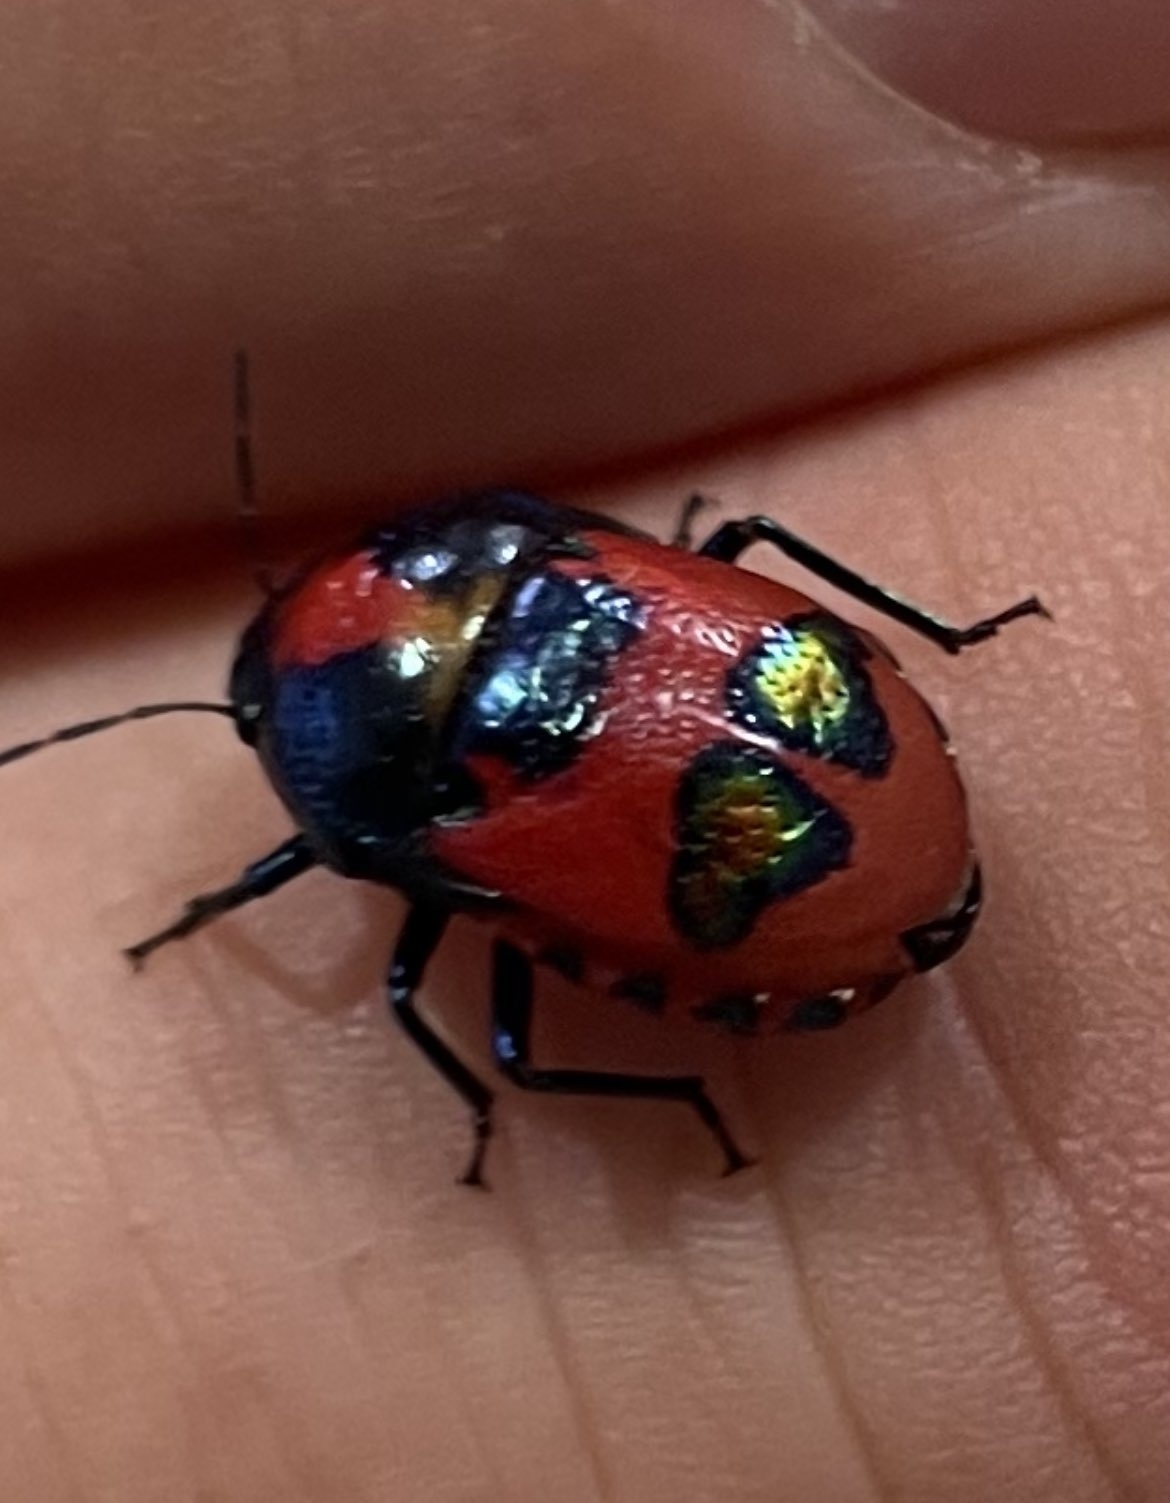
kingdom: Animalia
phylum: Arthropoda
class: Insecta
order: Hemiptera
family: Scutelleridae
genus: Choerocoris
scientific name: Choerocoris paganus
